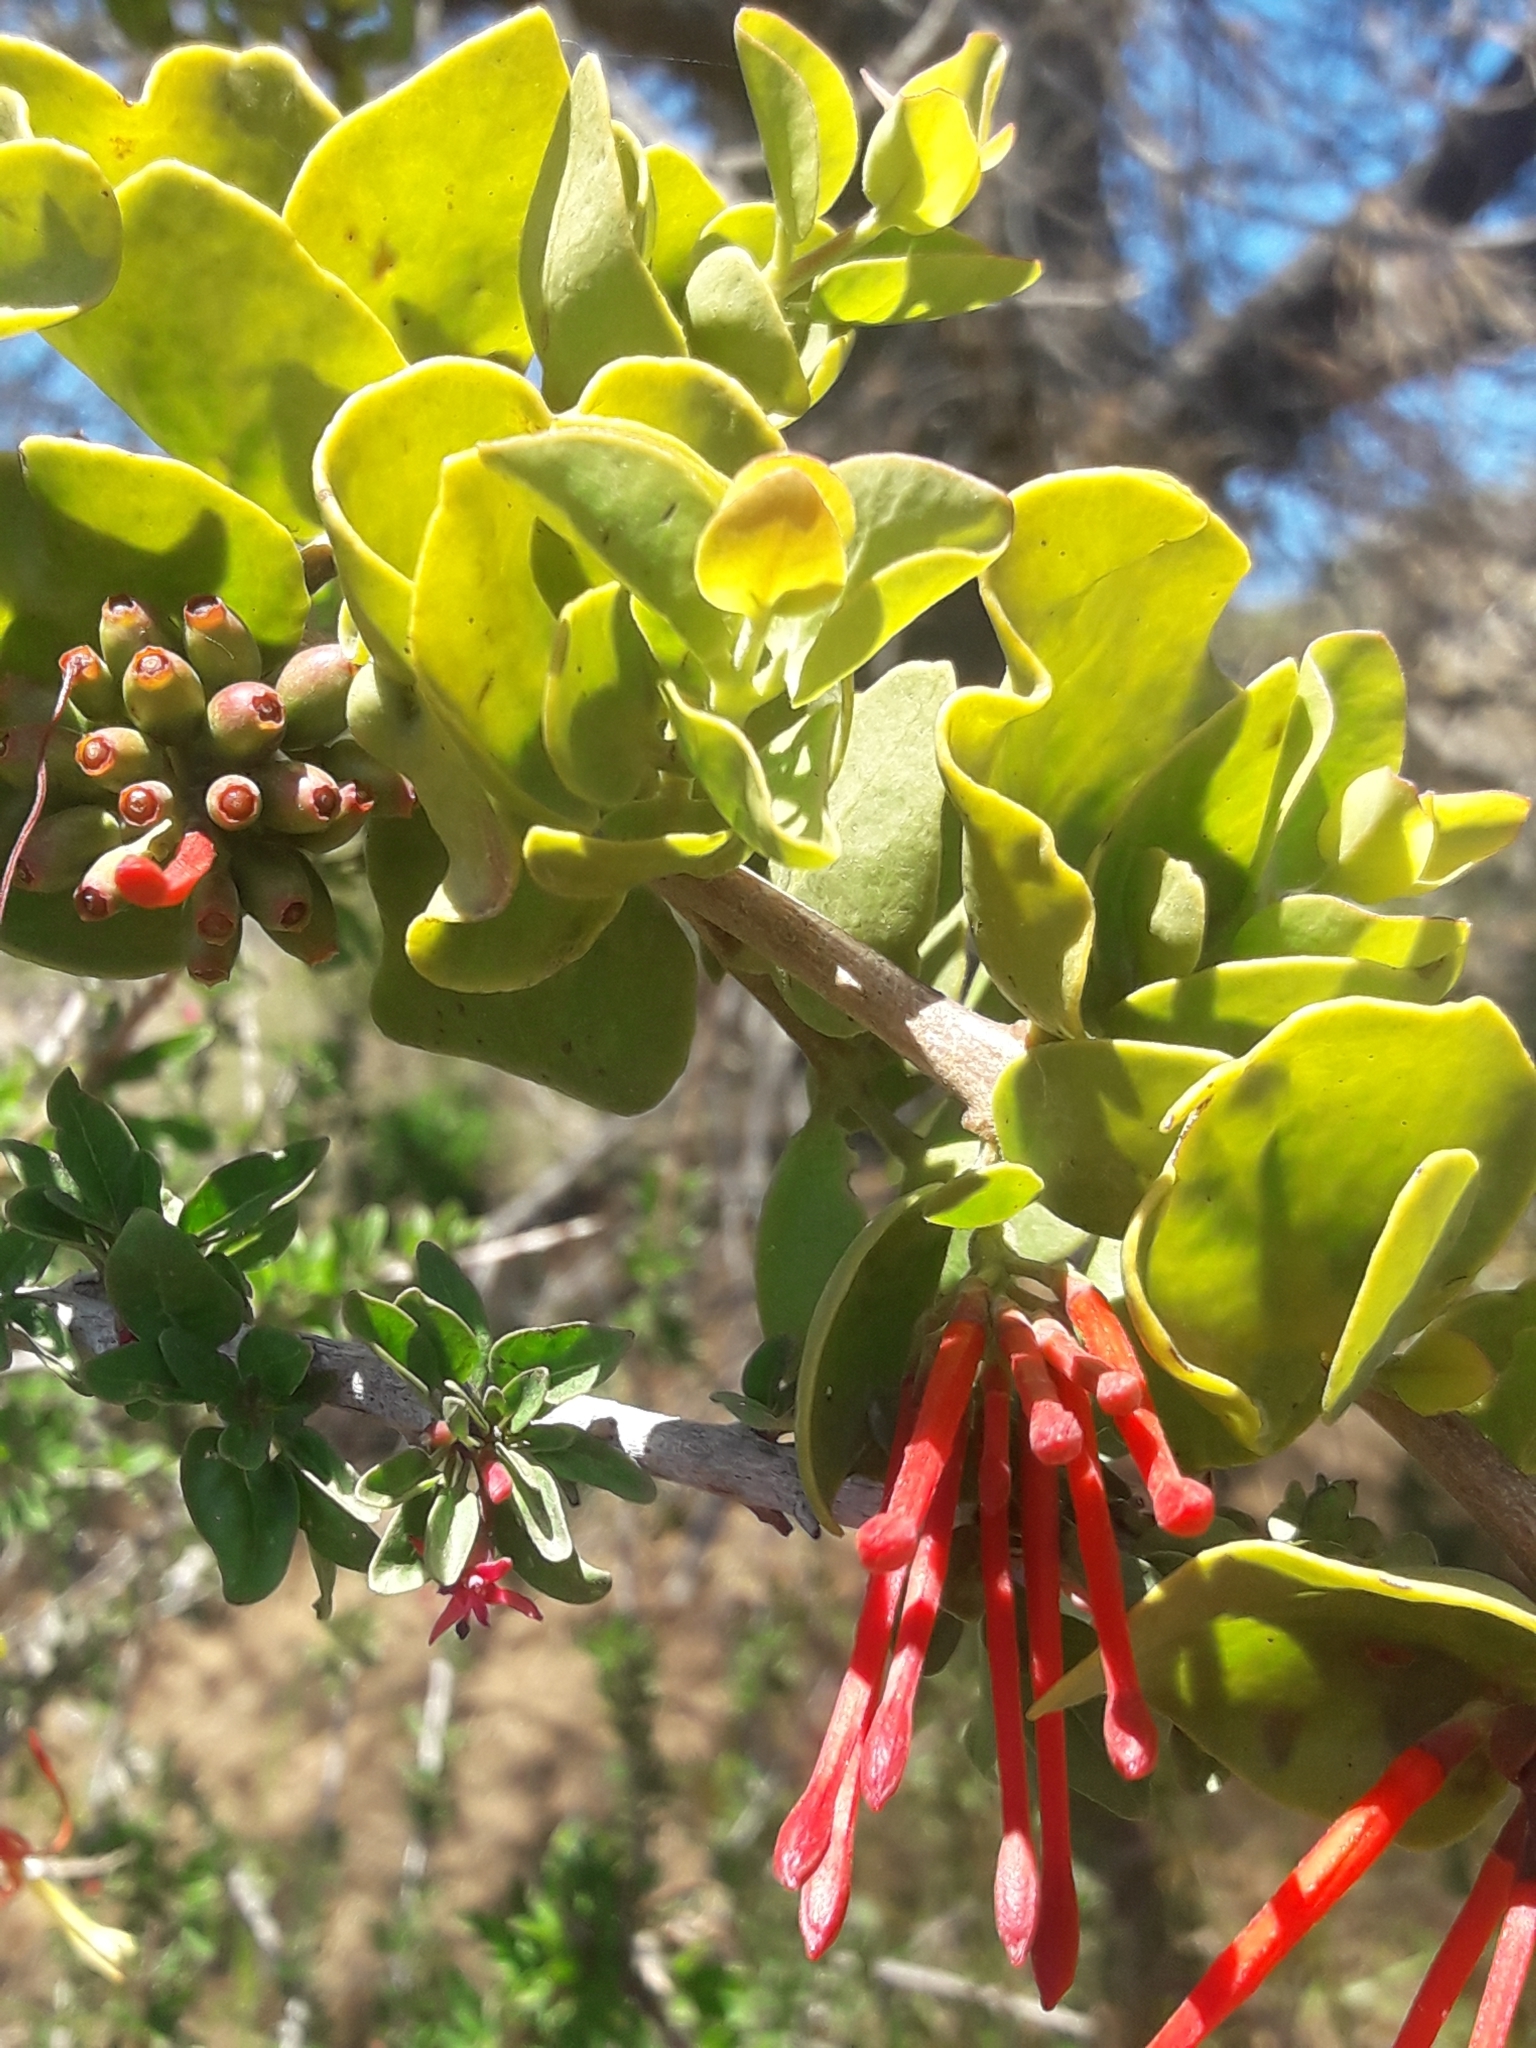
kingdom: Plantae
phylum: Tracheophyta
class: Magnoliopsida
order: Santalales
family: Loranthaceae
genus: Tristerix
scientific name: Tristerix corymbosus
